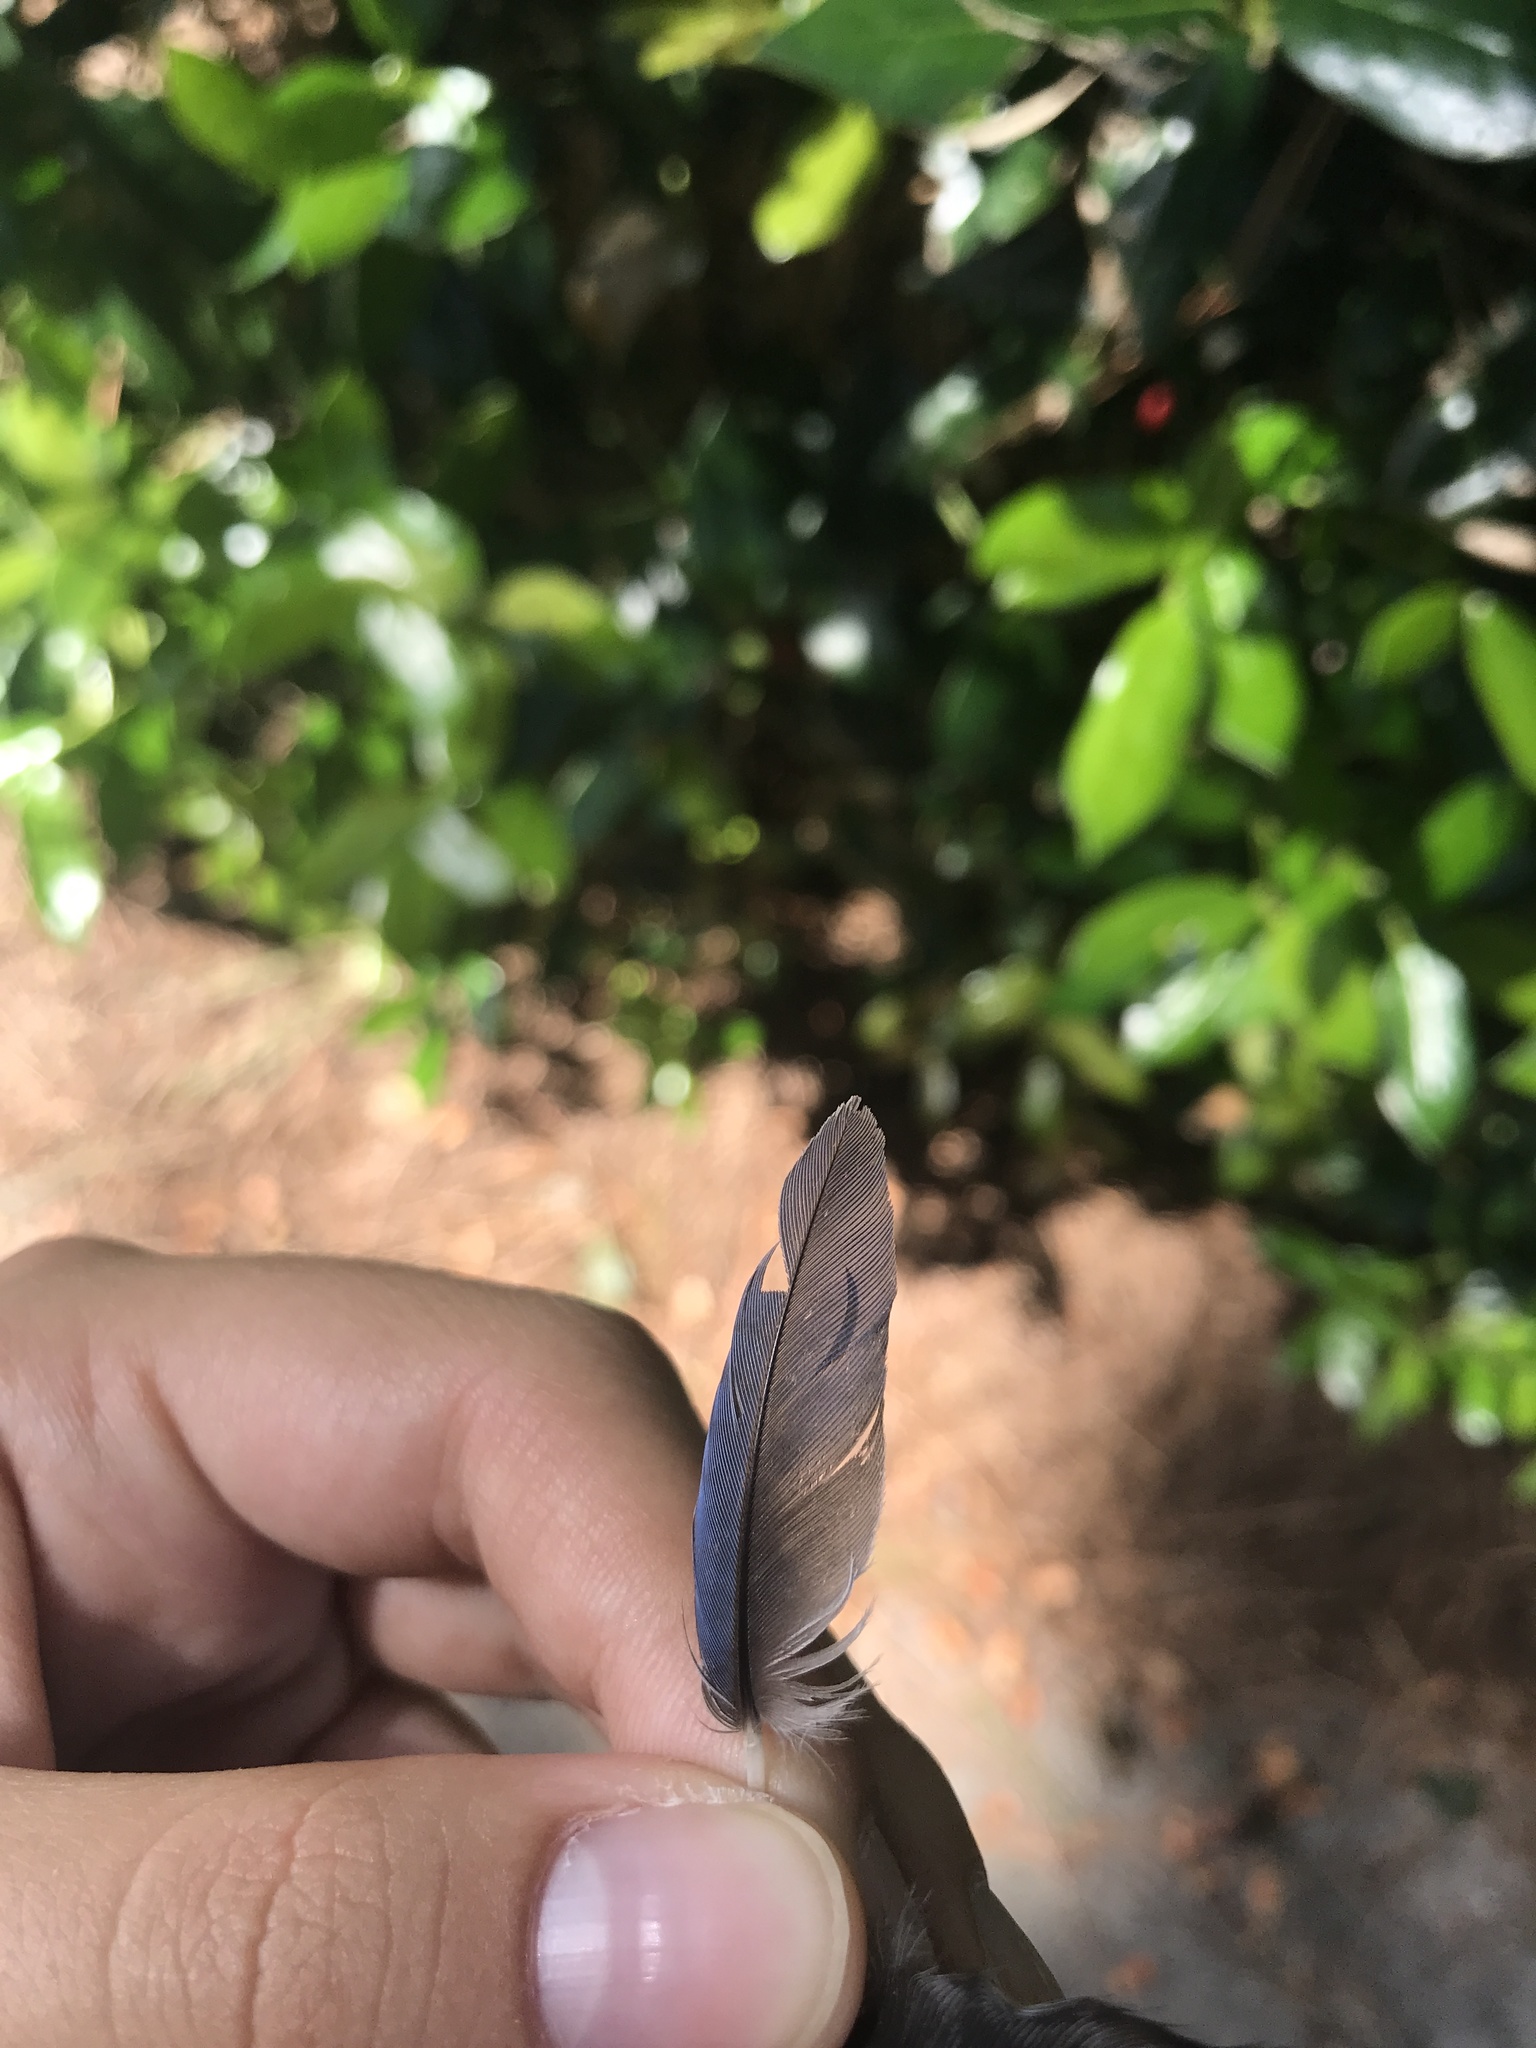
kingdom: Animalia
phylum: Chordata
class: Aves
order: Passeriformes
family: Corvidae
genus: Cyanocitta
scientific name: Cyanocitta cristata
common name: Blue jay
